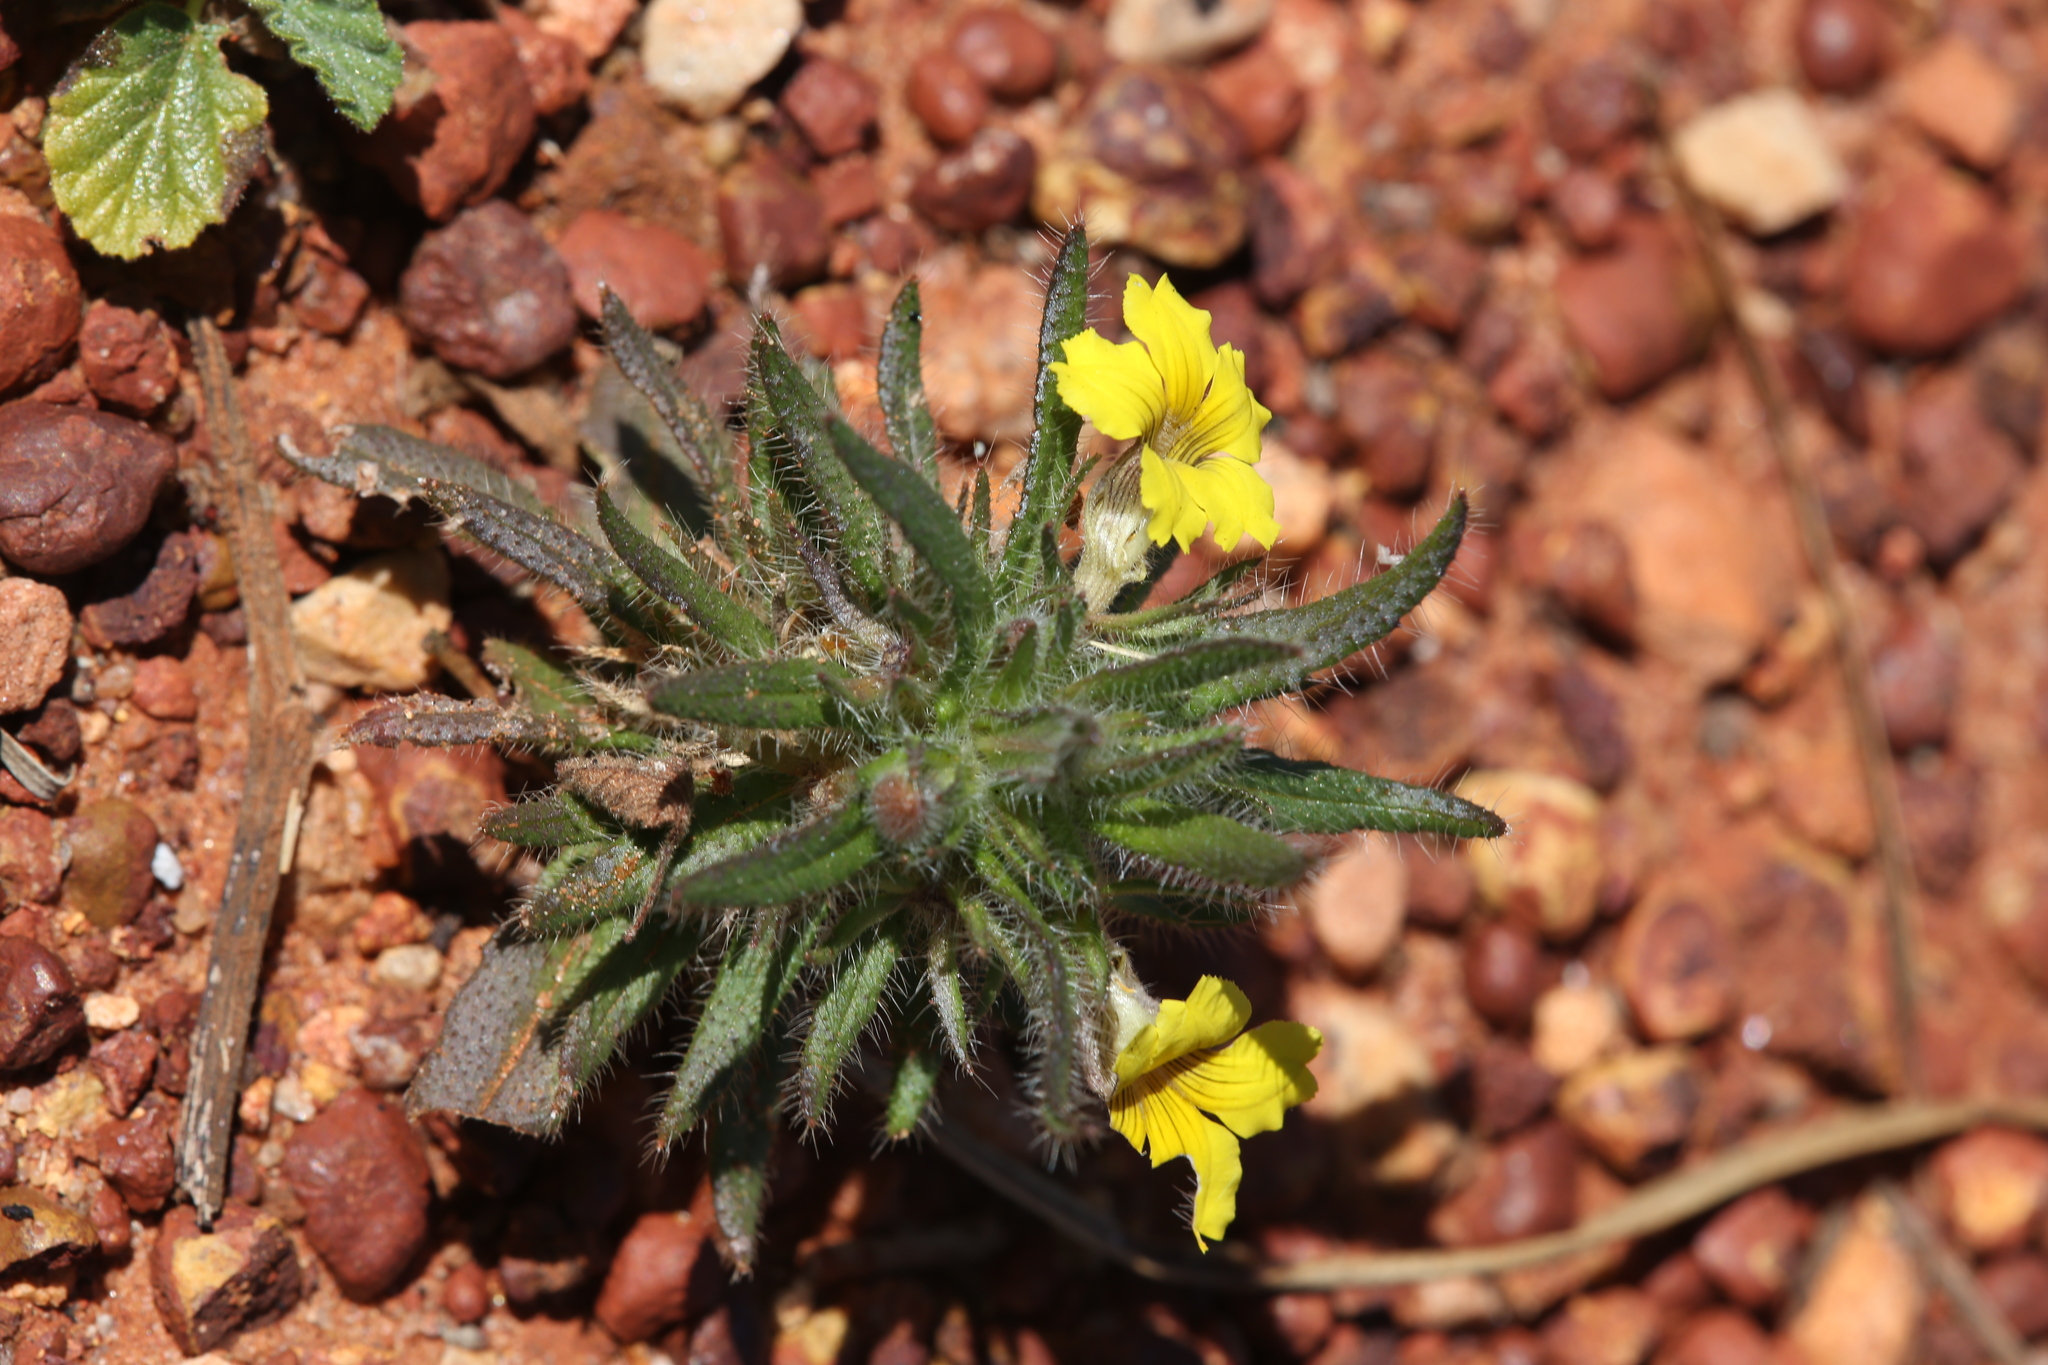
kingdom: Plantae
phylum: Tracheophyta
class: Magnoliopsida
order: Asterales
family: Goodeniaceae
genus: Goodenia
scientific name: Goodenia sepalosa
